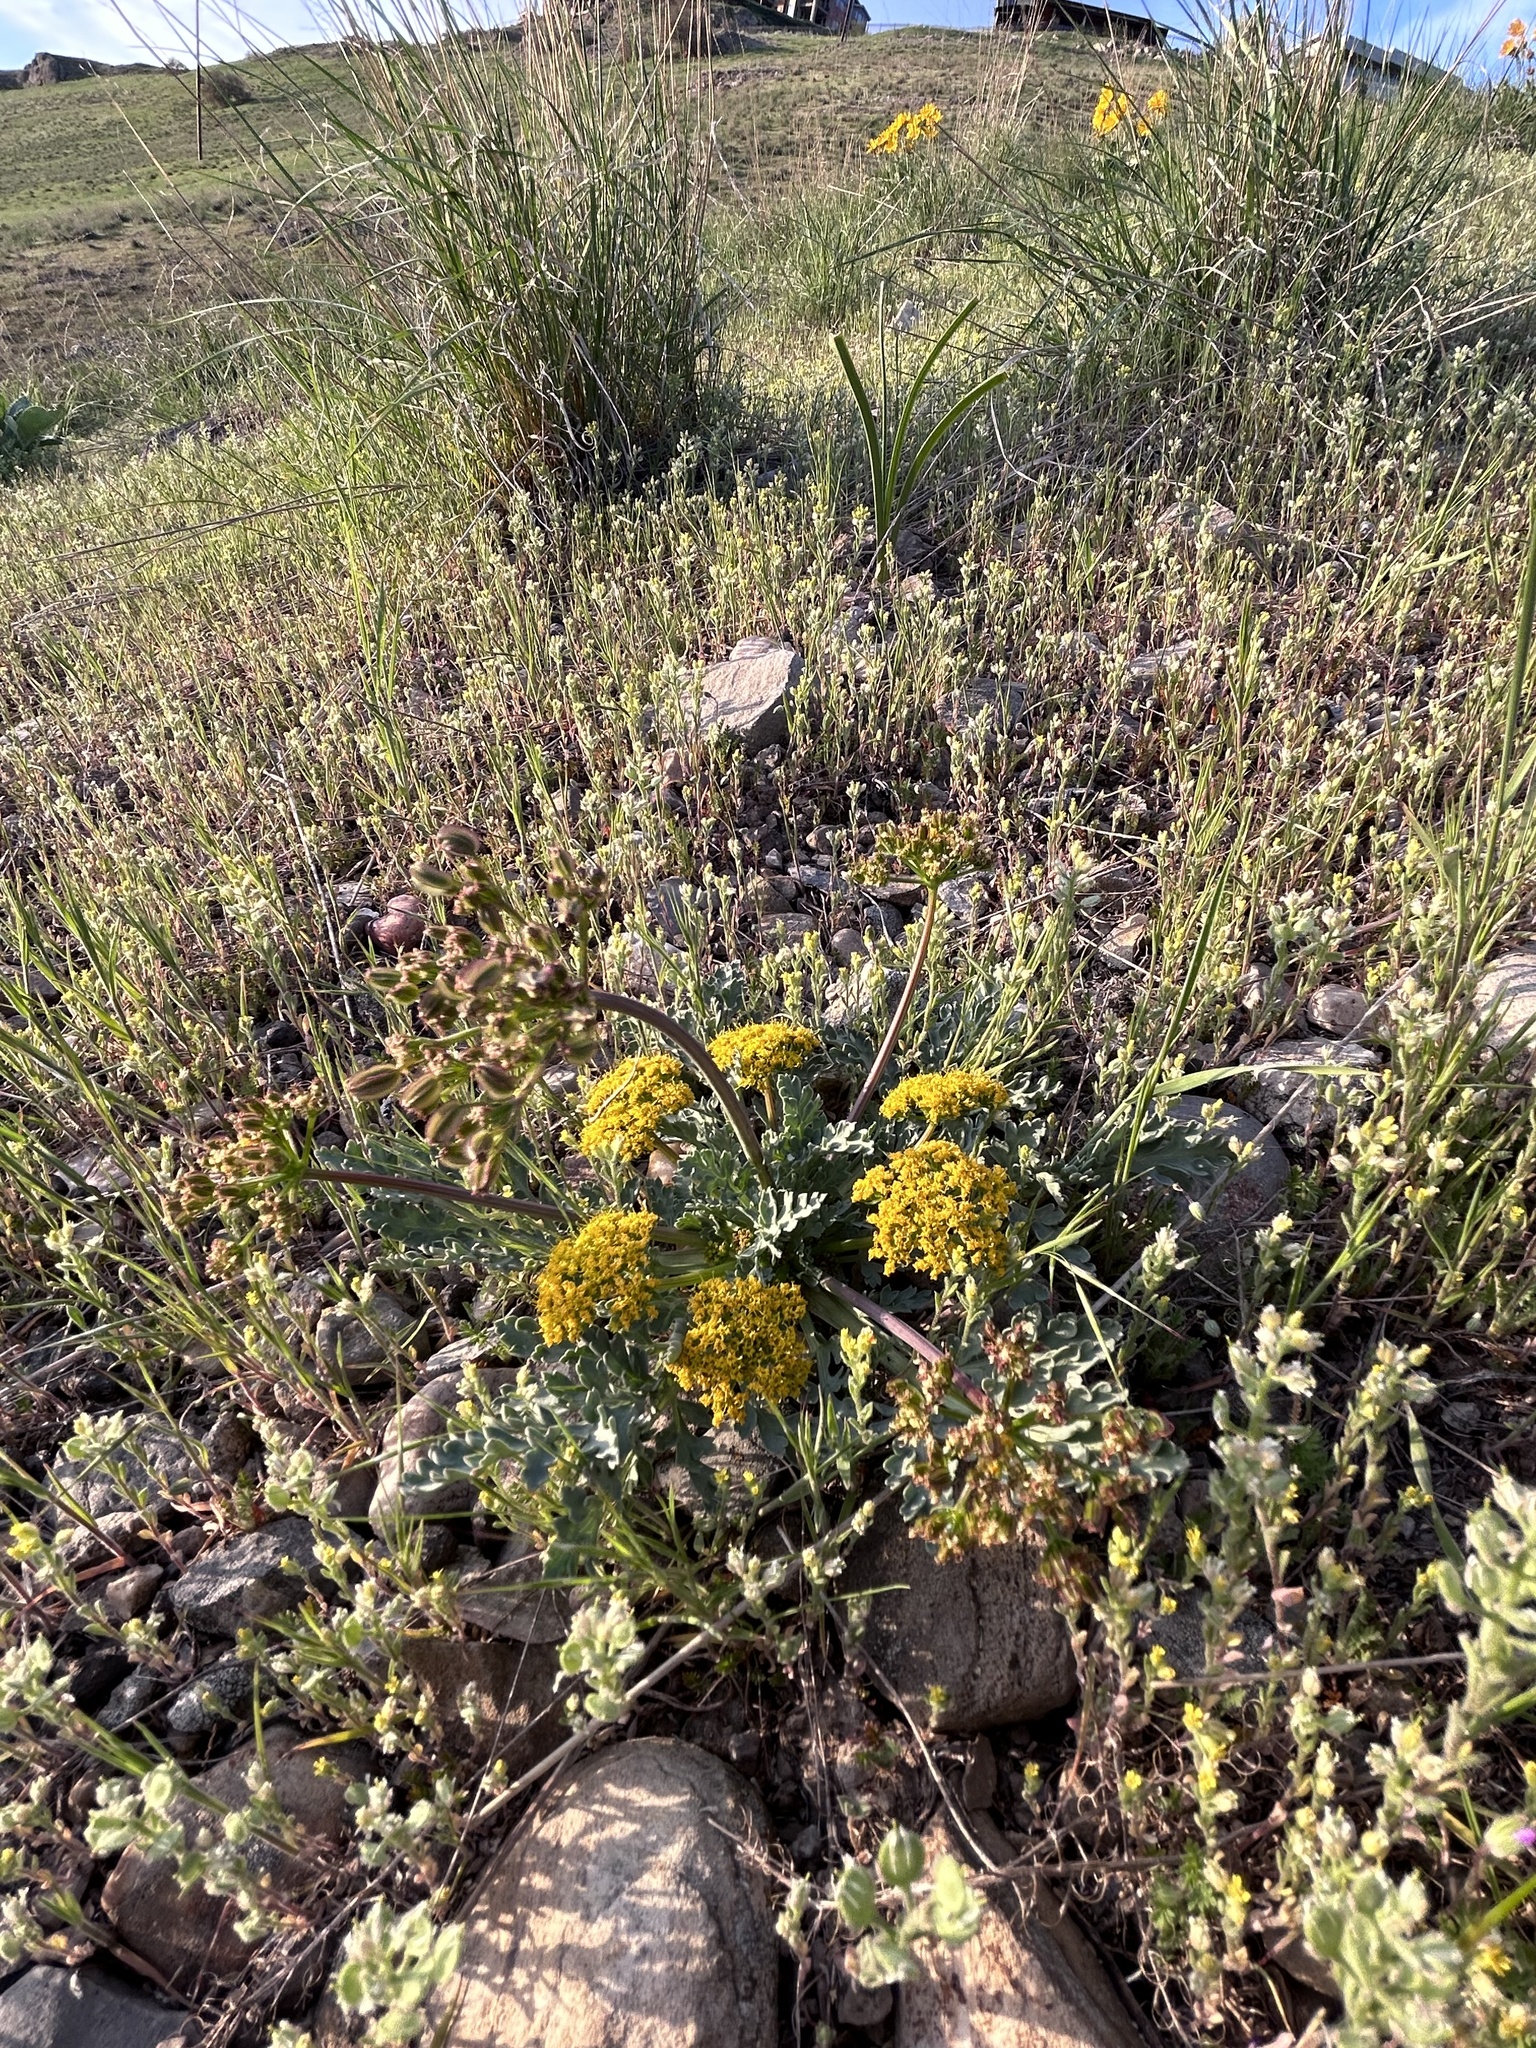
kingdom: Plantae
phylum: Tracheophyta
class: Magnoliopsida
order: Apiales
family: Apiaceae
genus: Aulospermum
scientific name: Aulospermum longipes
